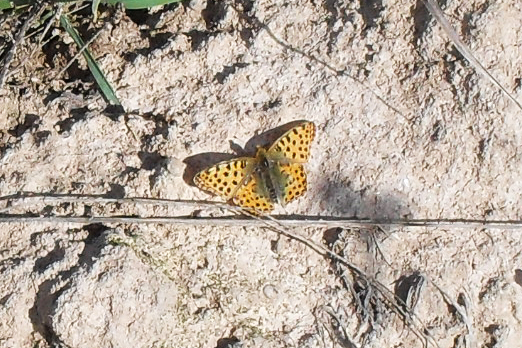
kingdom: Animalia
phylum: Arthropoda
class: Insecta
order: Lepidoptera
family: Nymphalidae
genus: Issoria
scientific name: Issoria lathonia
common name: Queen of spain fritillary
